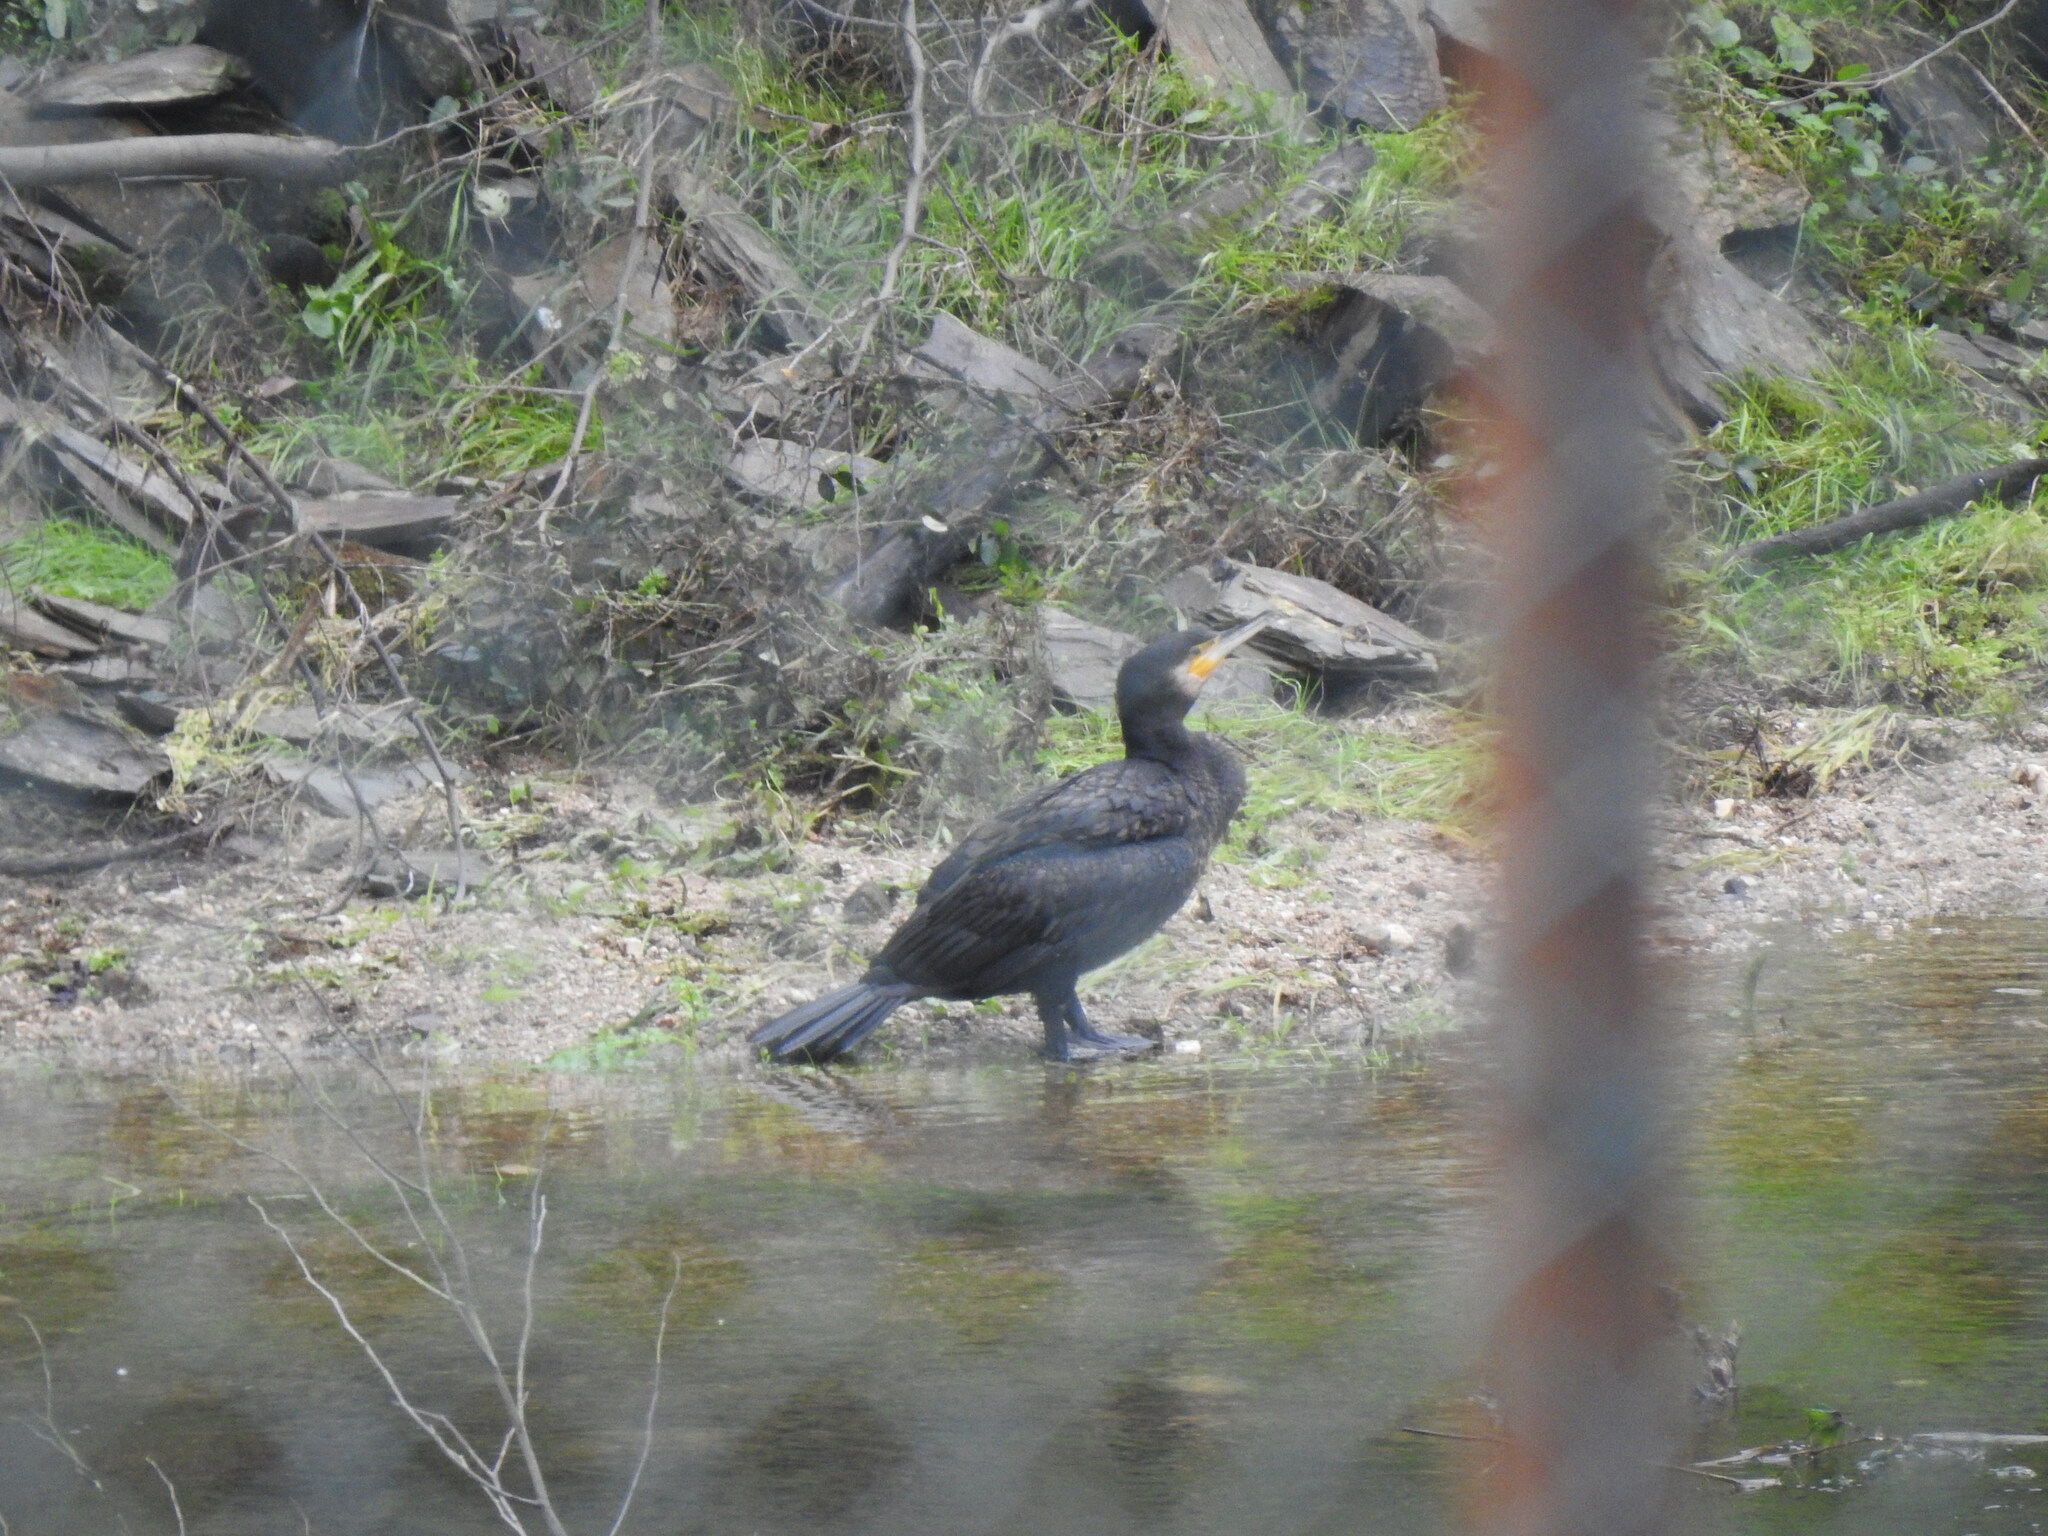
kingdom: Animalia
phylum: Chordata
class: Aves
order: Suliformes
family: Phalacrocoracidae
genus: Phalacrocorax
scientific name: Phalacrocorax carbo
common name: Great cormorant
